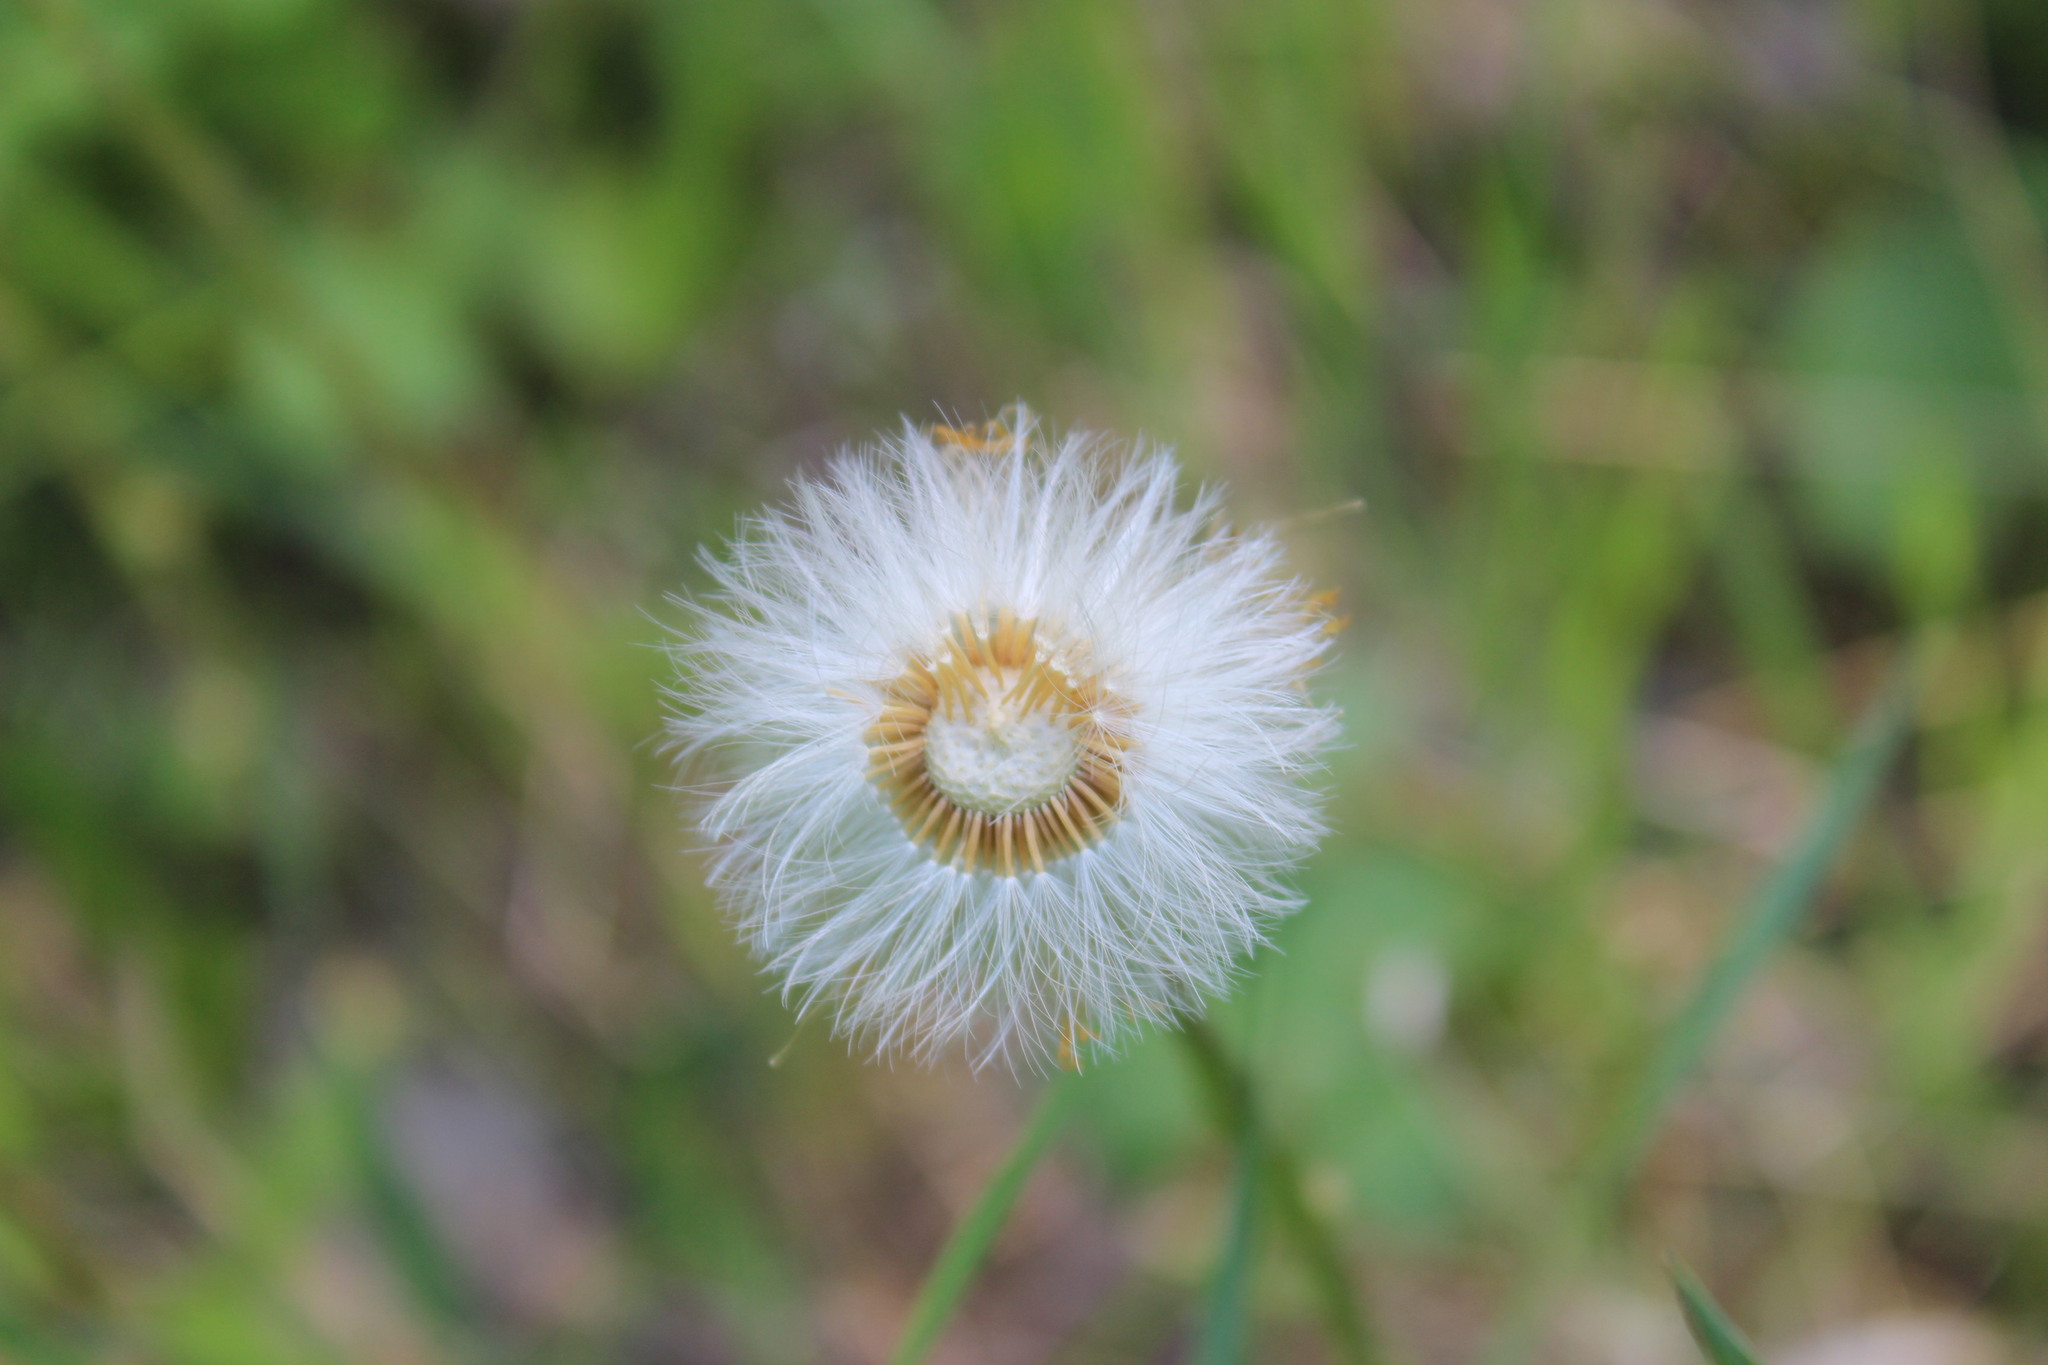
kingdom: Plantae
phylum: Tracheophyta
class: Magnoliopsida
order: Asterales
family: Asteraceae
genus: Tussilago
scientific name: Tussilago farfara
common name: Coltsfoot
